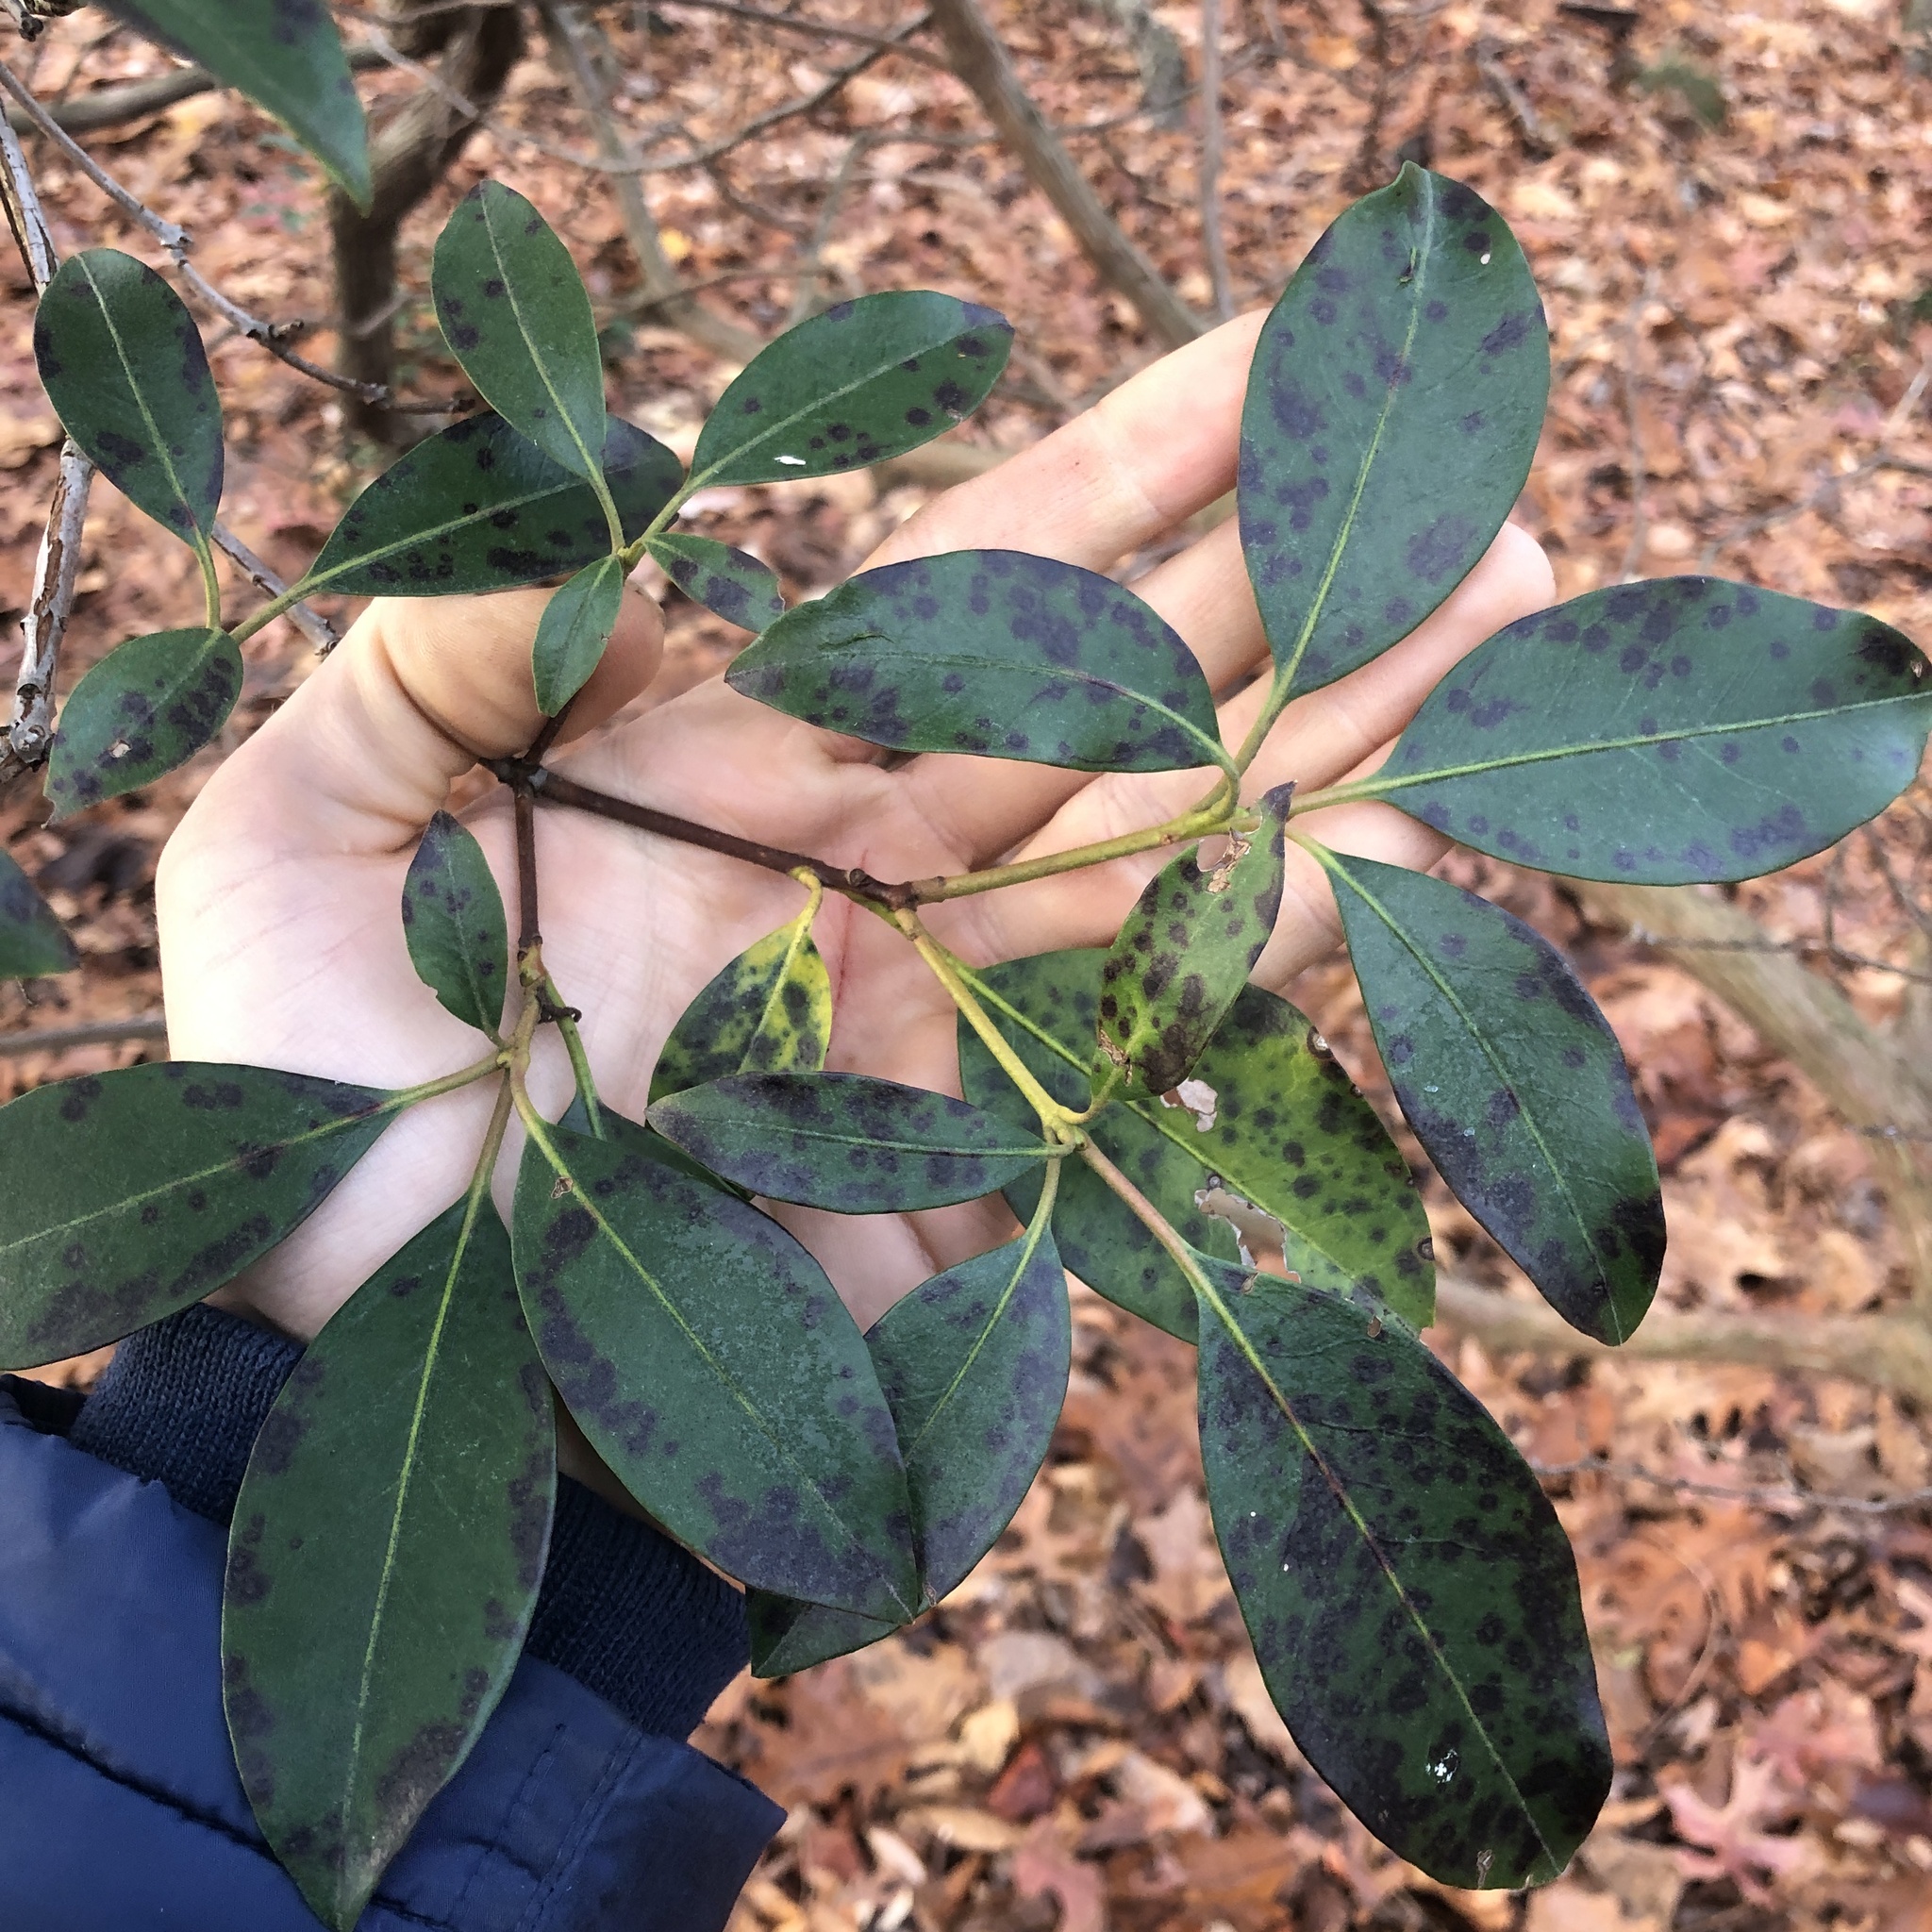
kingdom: Plantae
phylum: Tracheophyta
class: Magnoliopsida
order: Ericales
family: Ericaceae
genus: Kalmia
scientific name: Kalmia latifolia
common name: Mountain-laurel
